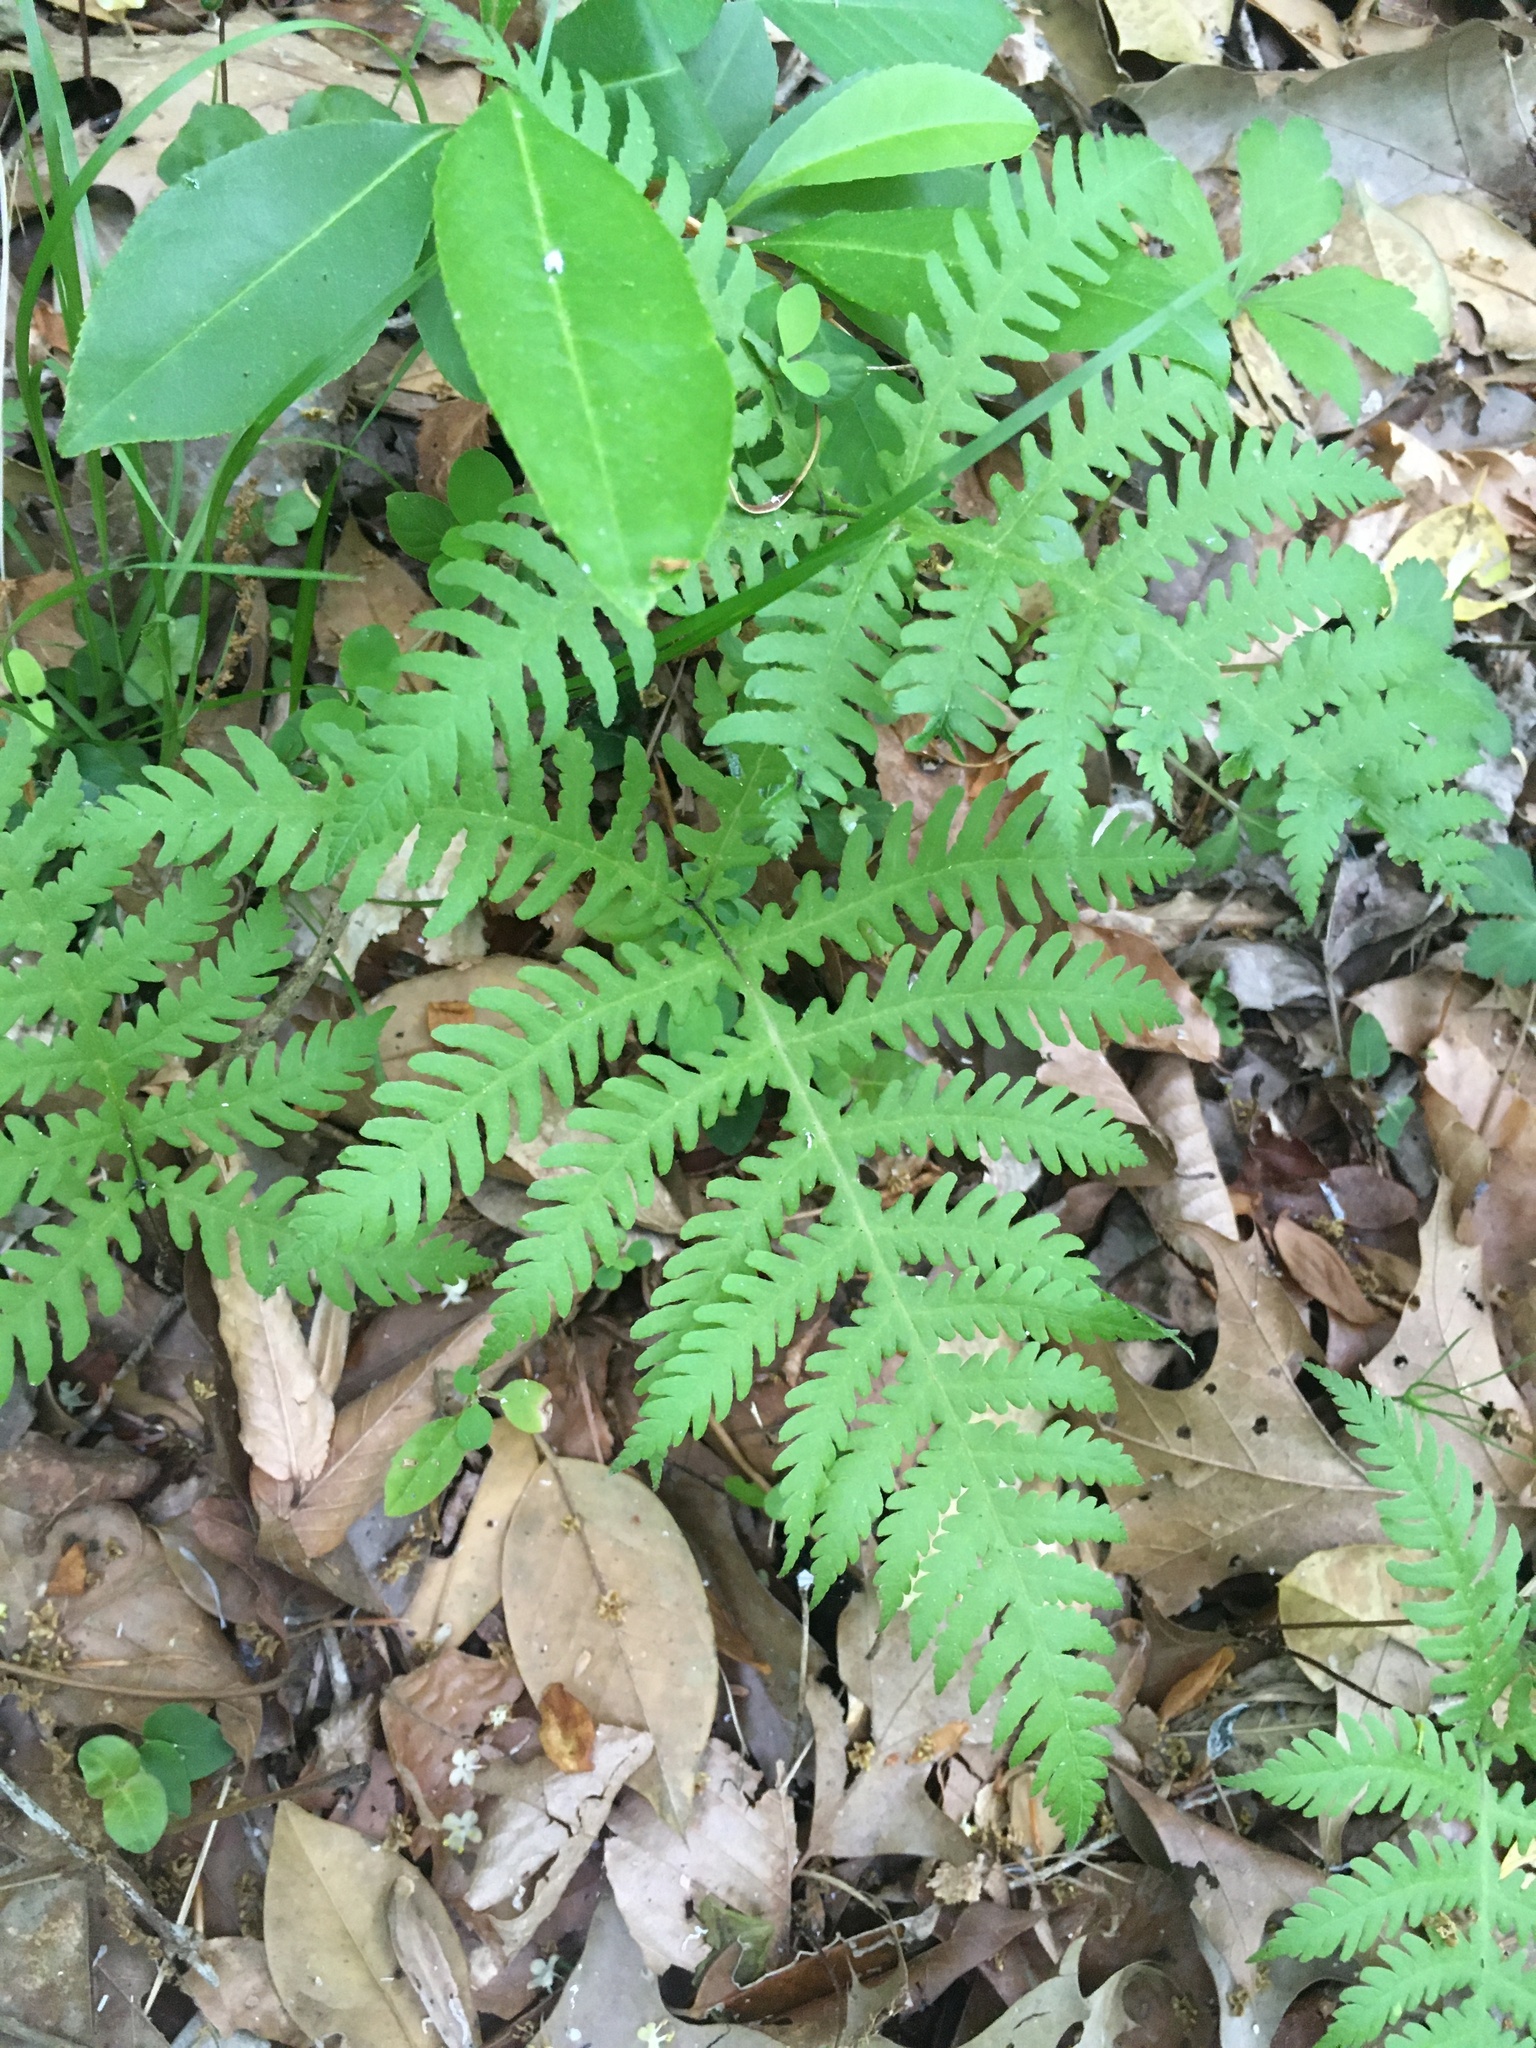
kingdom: Plantae
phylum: Tracheophyta
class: Polypodiopsida
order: Polypodiales
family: Thelypteridaceae
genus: Phegopteris
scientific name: Phegopteris hexagonoptera
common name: Broad beech fern
